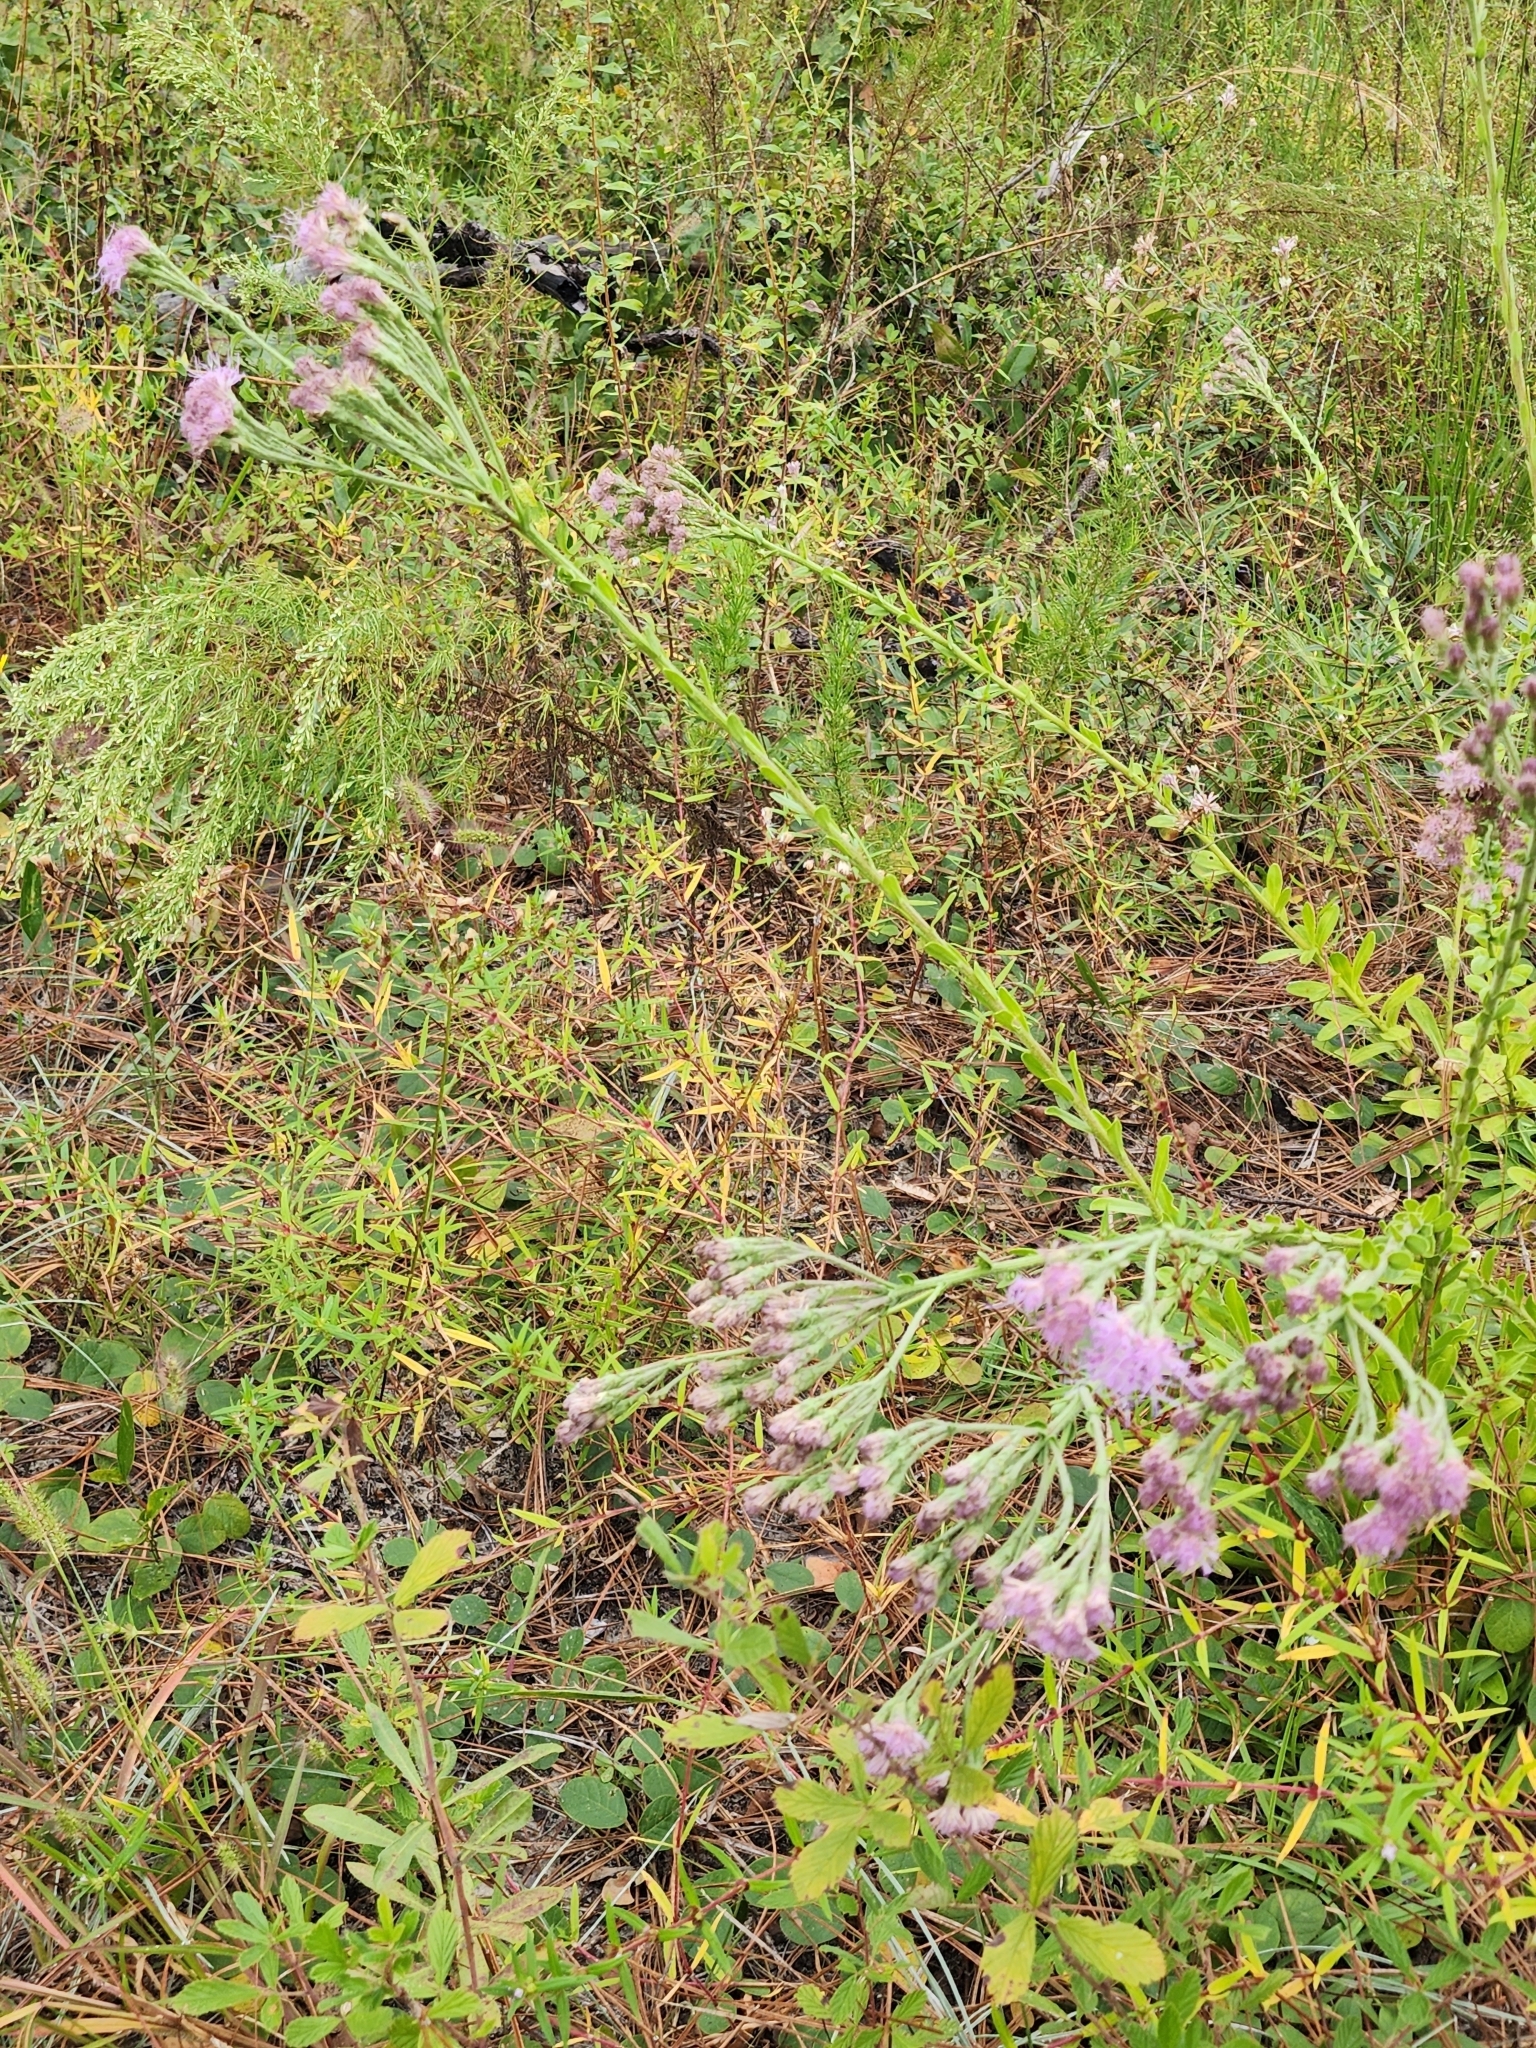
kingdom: Plantae
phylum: Tracheophyta
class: Magnoliopsida
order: Asterales
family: Asteraceae
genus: Carphephorus
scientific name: Carphephorus corymbosus
